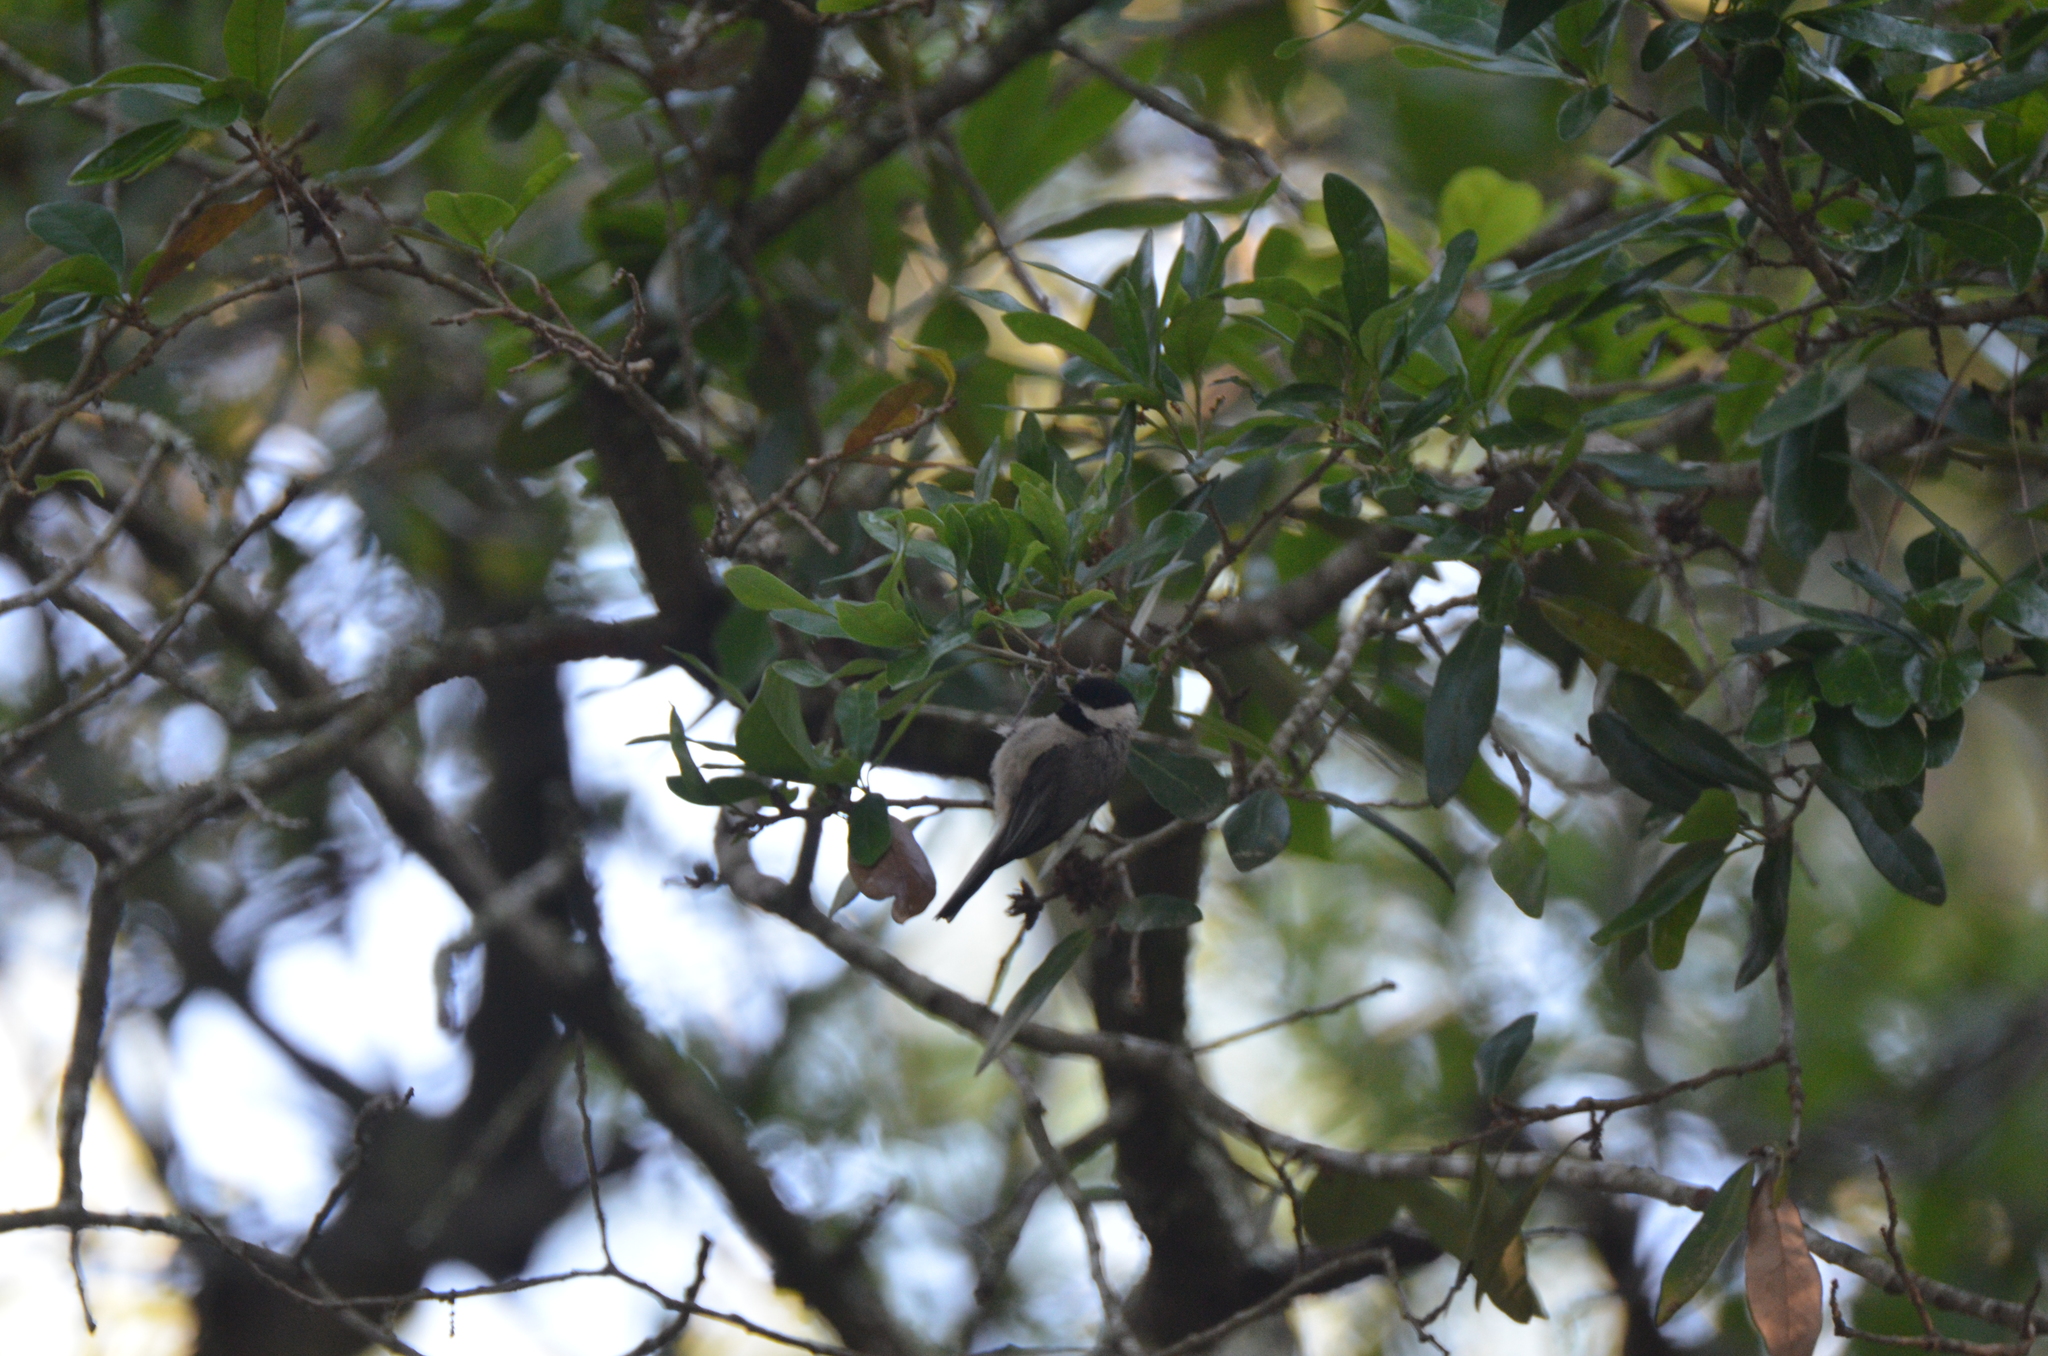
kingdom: Animalia
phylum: Chordata
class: Aves
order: Passeriformes
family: Paridae
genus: Poecile
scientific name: Poecile carolinensis
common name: Carolina chickadee
